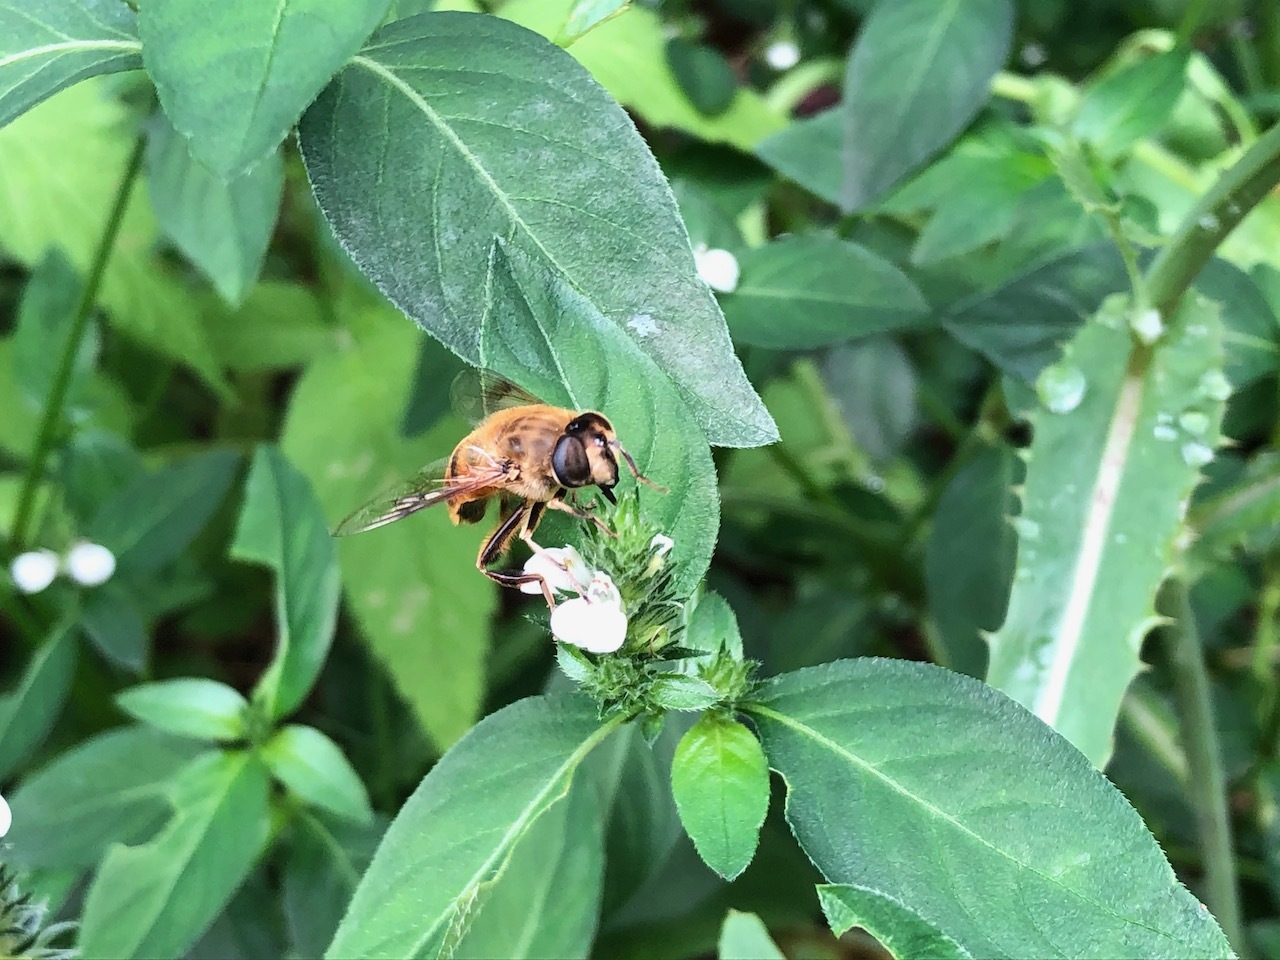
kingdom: Animalia
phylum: Arthropoda
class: Insecta
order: Diptera
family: Syrphidae
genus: Eristalis
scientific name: Eristalis tenax
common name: Drone fly
